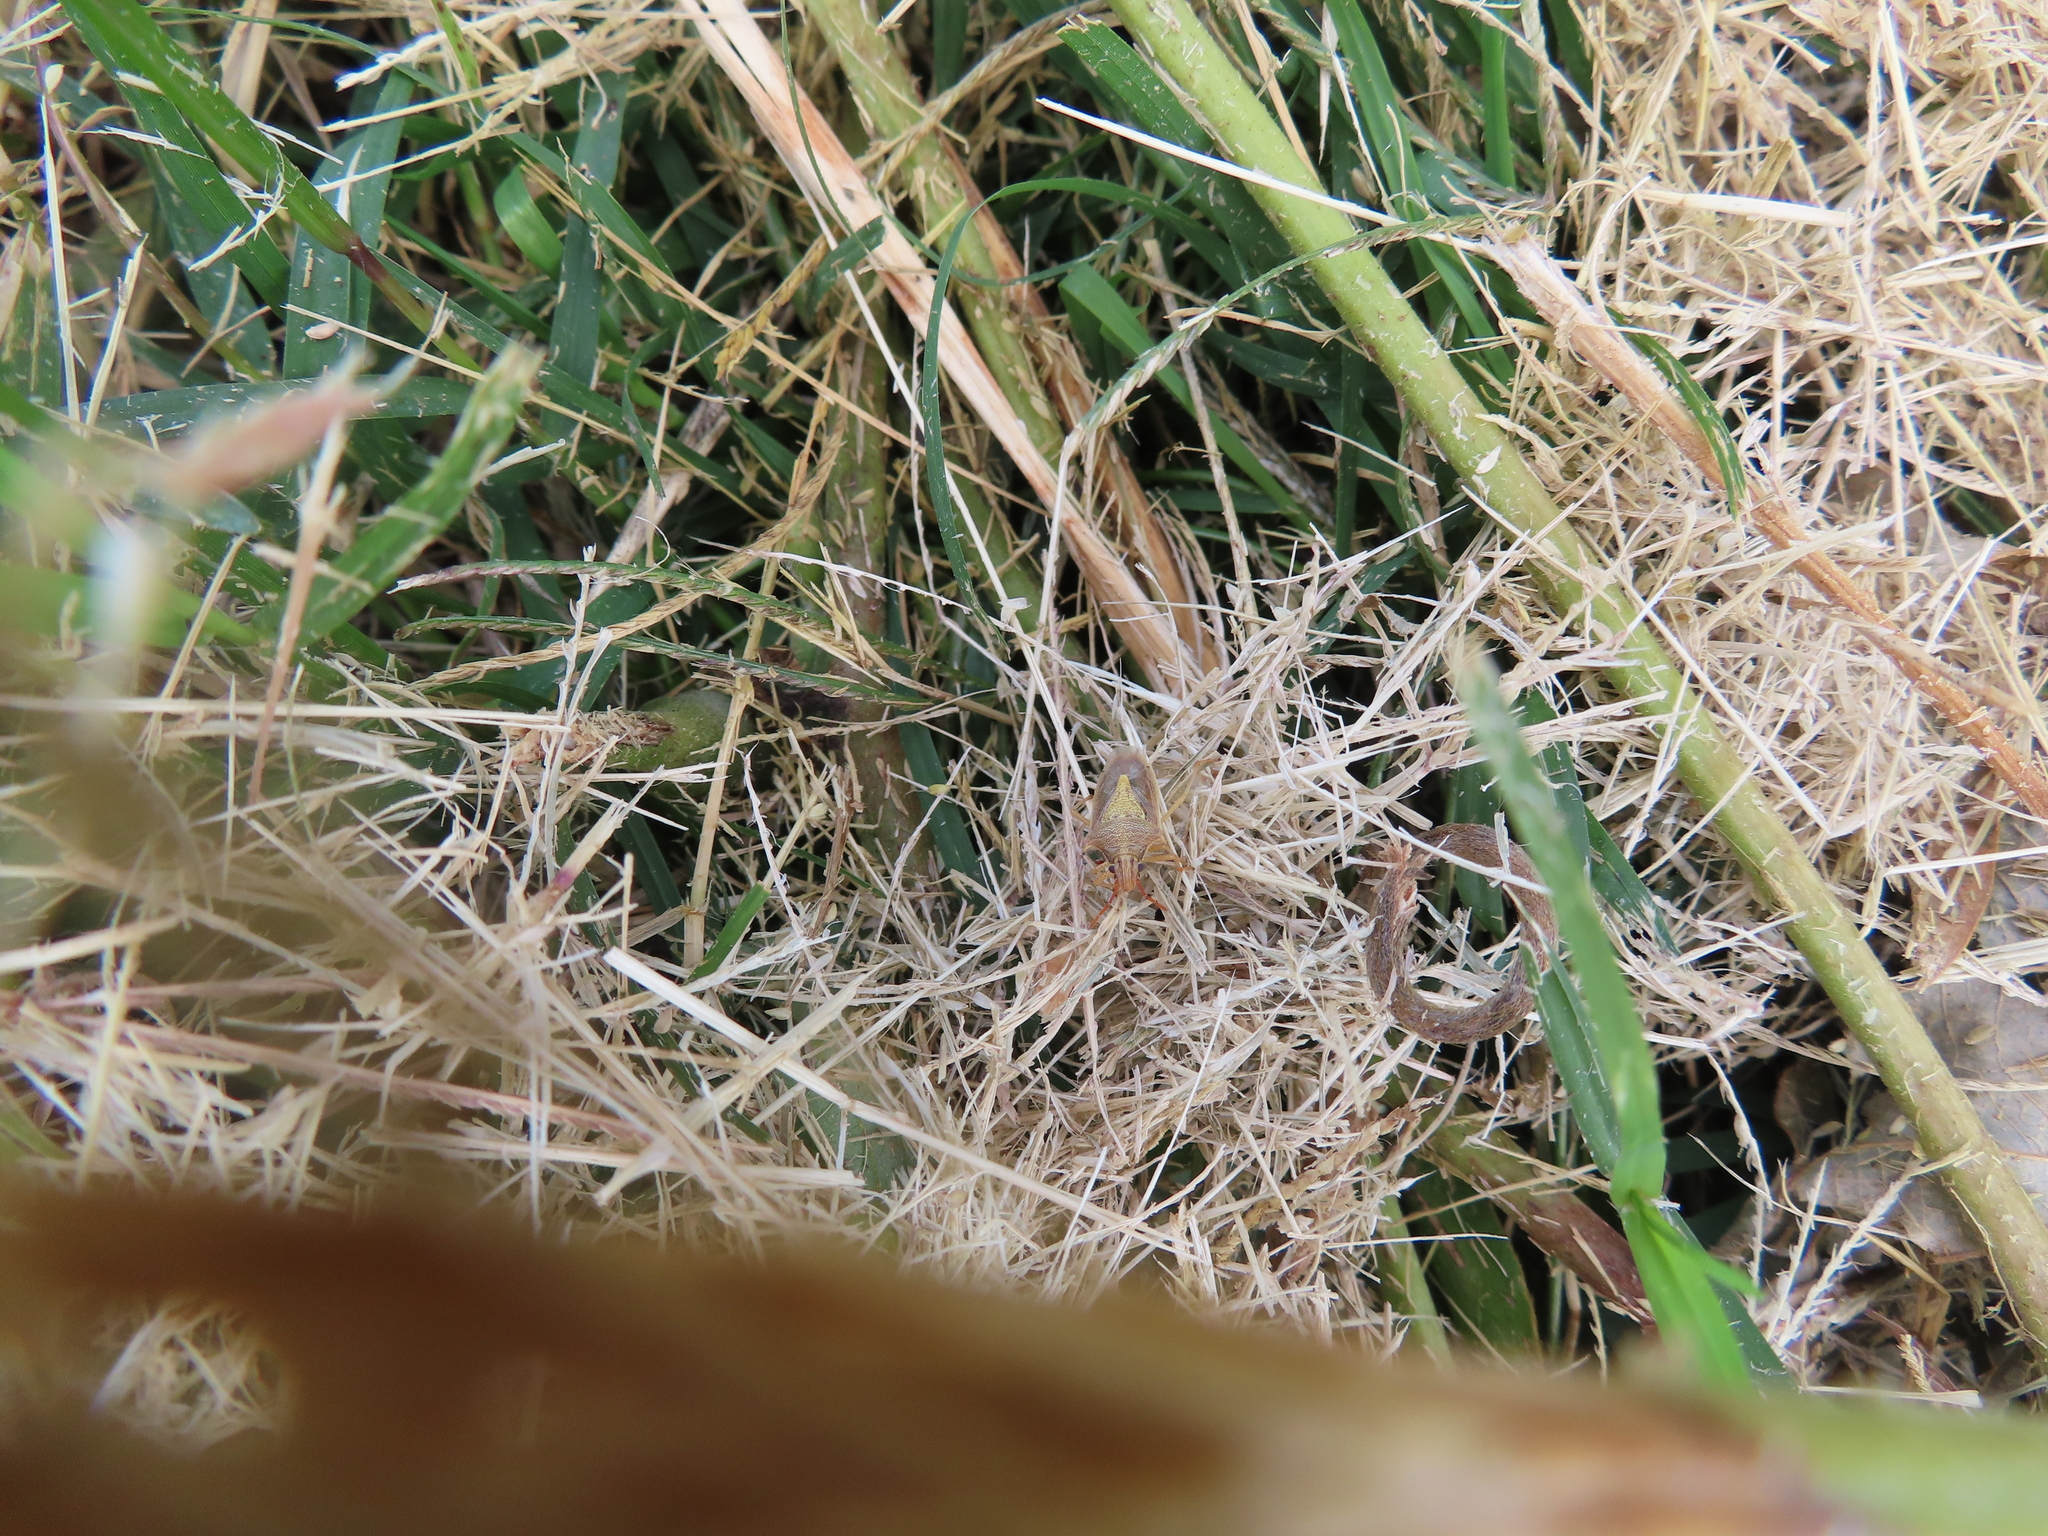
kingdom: Animalia
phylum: Arthropoda
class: Insecta
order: Hemiptera
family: Pentatomidae
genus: Oebalus
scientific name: Oebalus pugnax
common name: Rice stink bug
